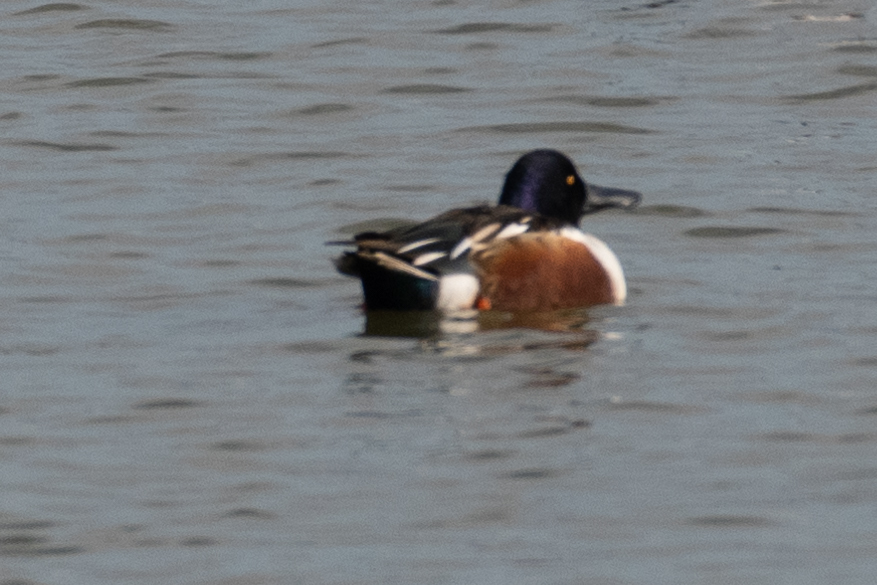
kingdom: Animalia
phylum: Chordata
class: Aves
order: Anseriformes
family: Anatidae
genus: Spatula
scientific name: Spatula clypeata
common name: Northern shoveler
